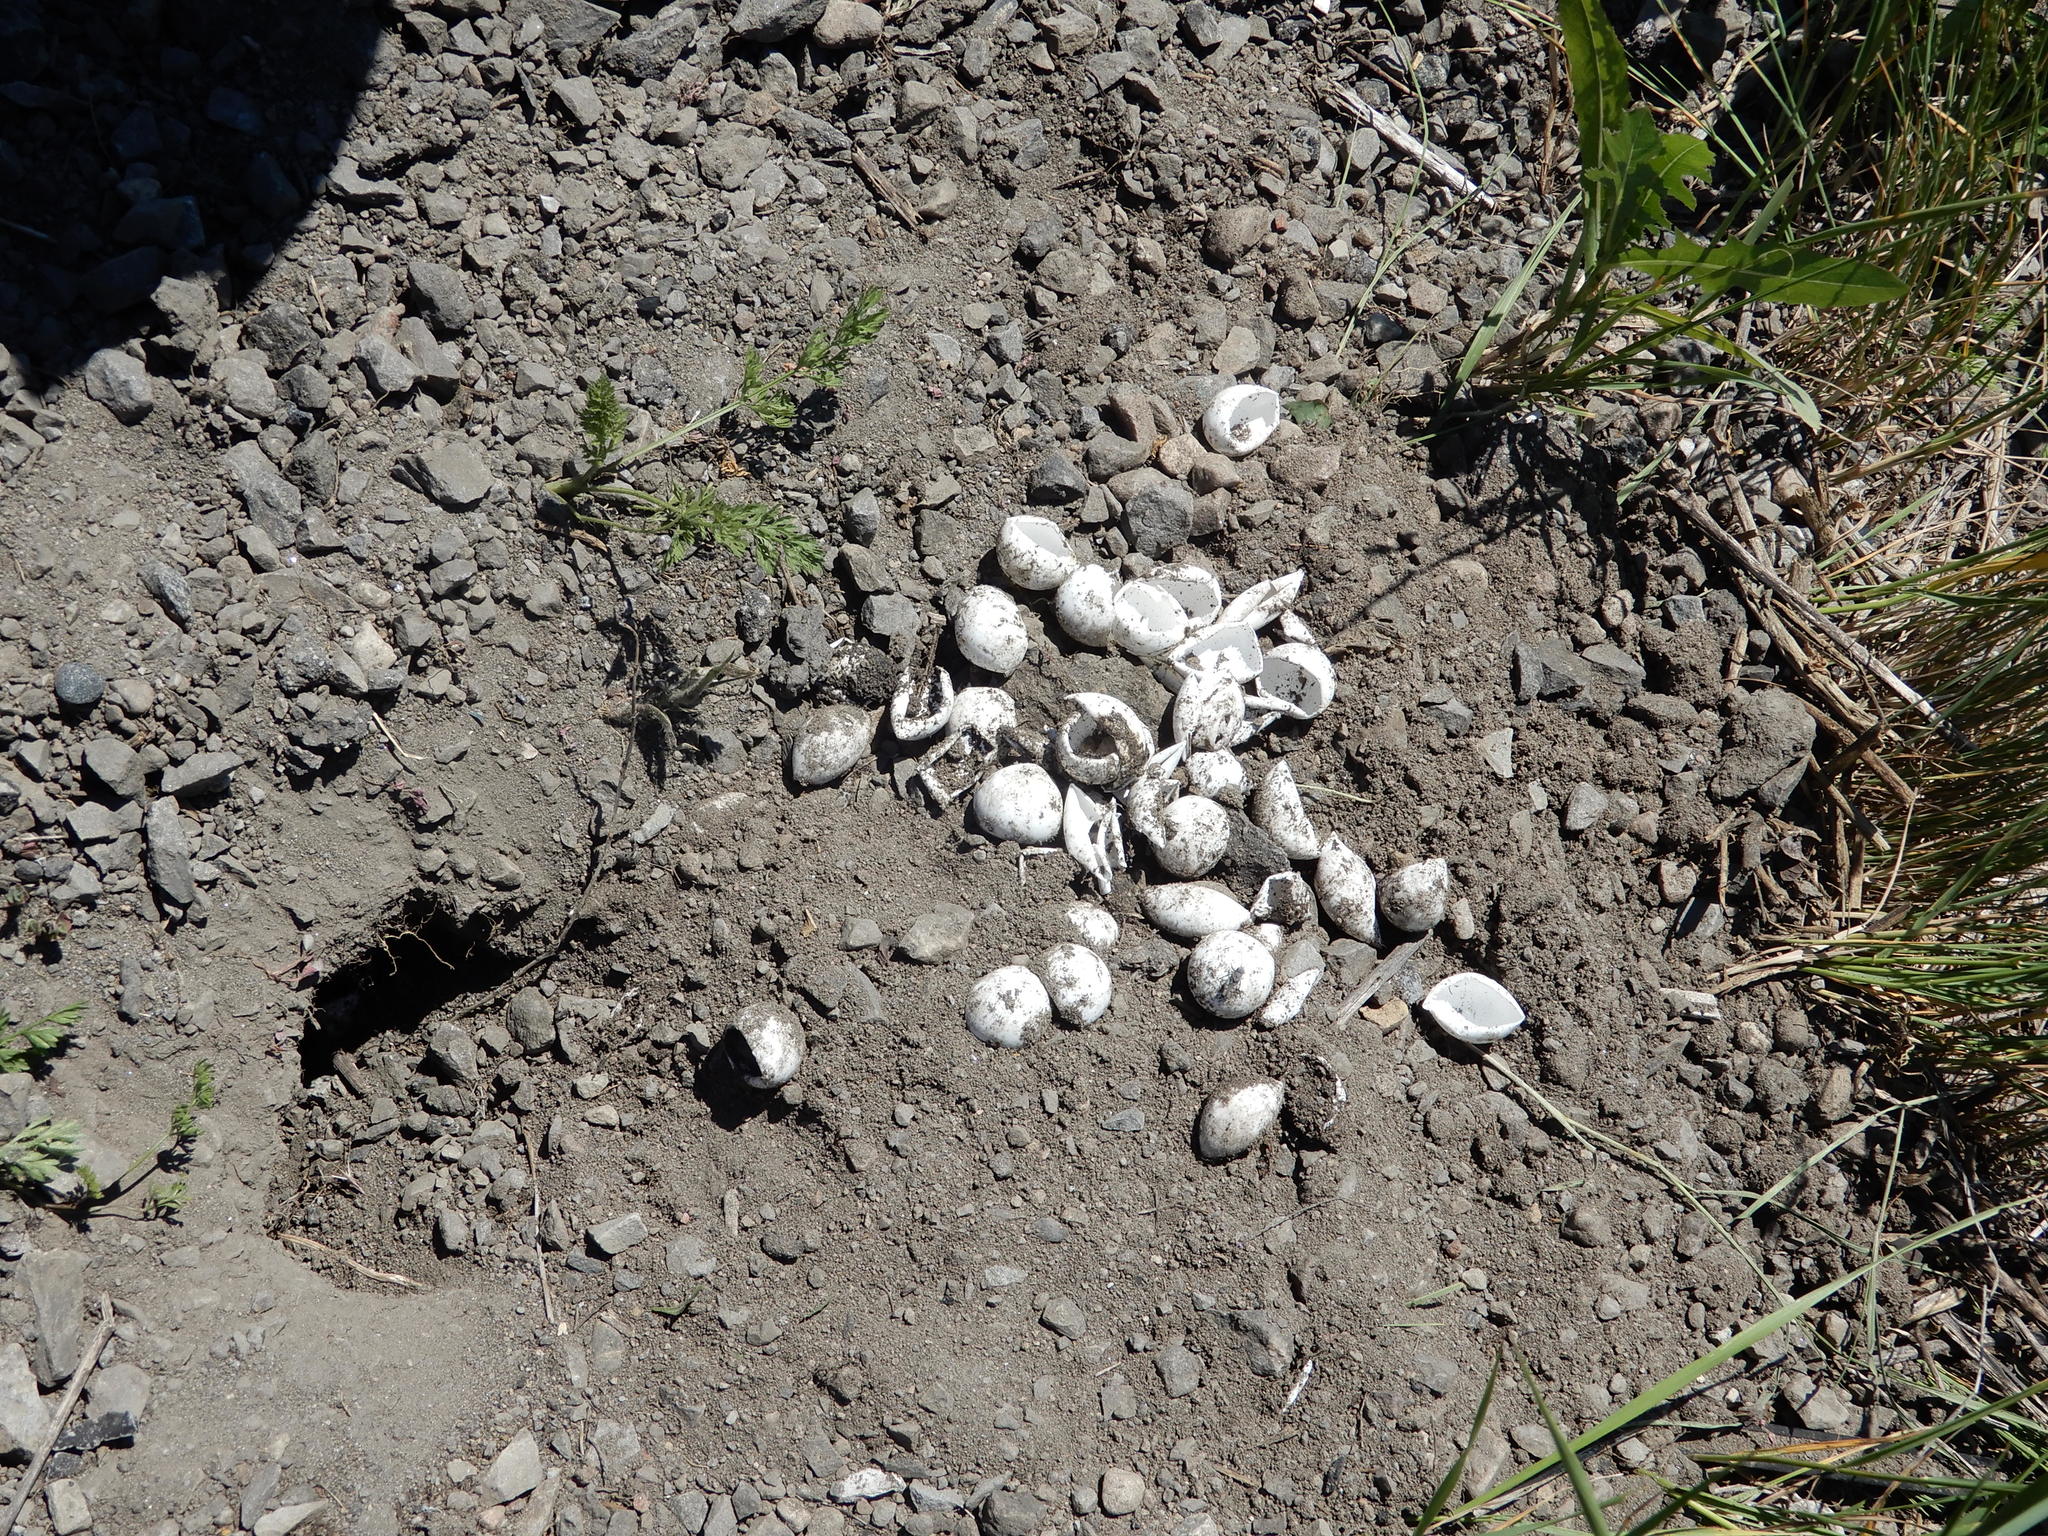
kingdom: Animalia
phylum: Chordata
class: Testudines
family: Chelydridae
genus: Chelydra
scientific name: Chelydra serpentina
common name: Common snapping turtle
